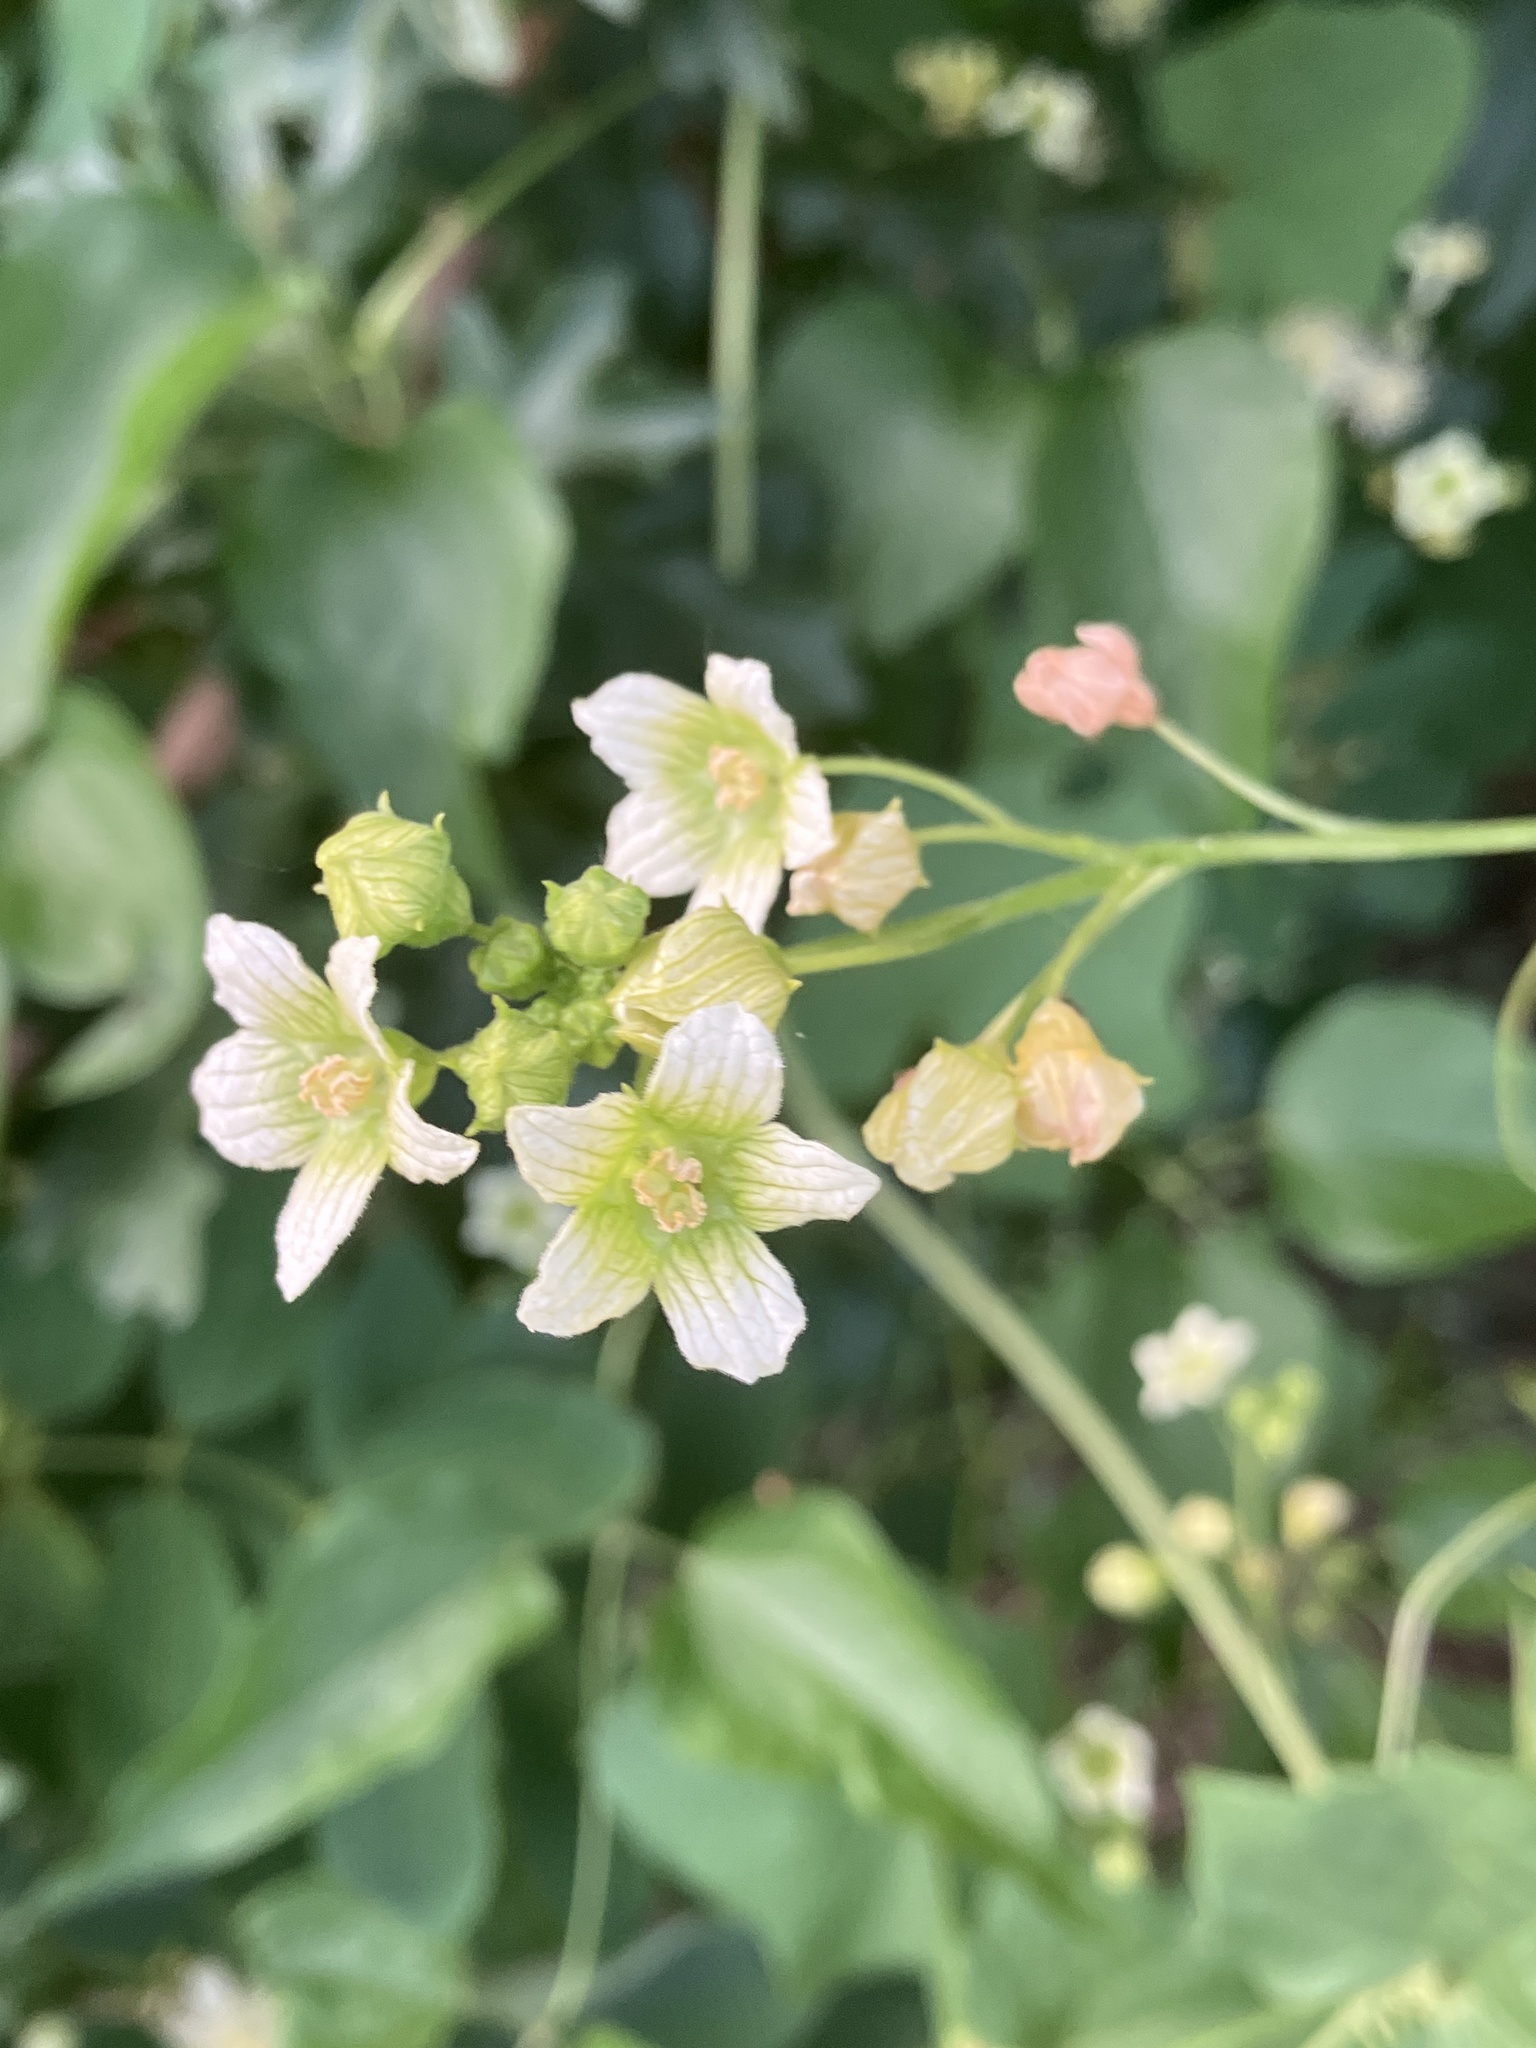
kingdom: Plantae
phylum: Tracheophyta
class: Magnoliopsida
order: Cucurbitales
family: Cucurbitaceae
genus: Bryonia
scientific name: Bryonia dioica
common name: White bryony
